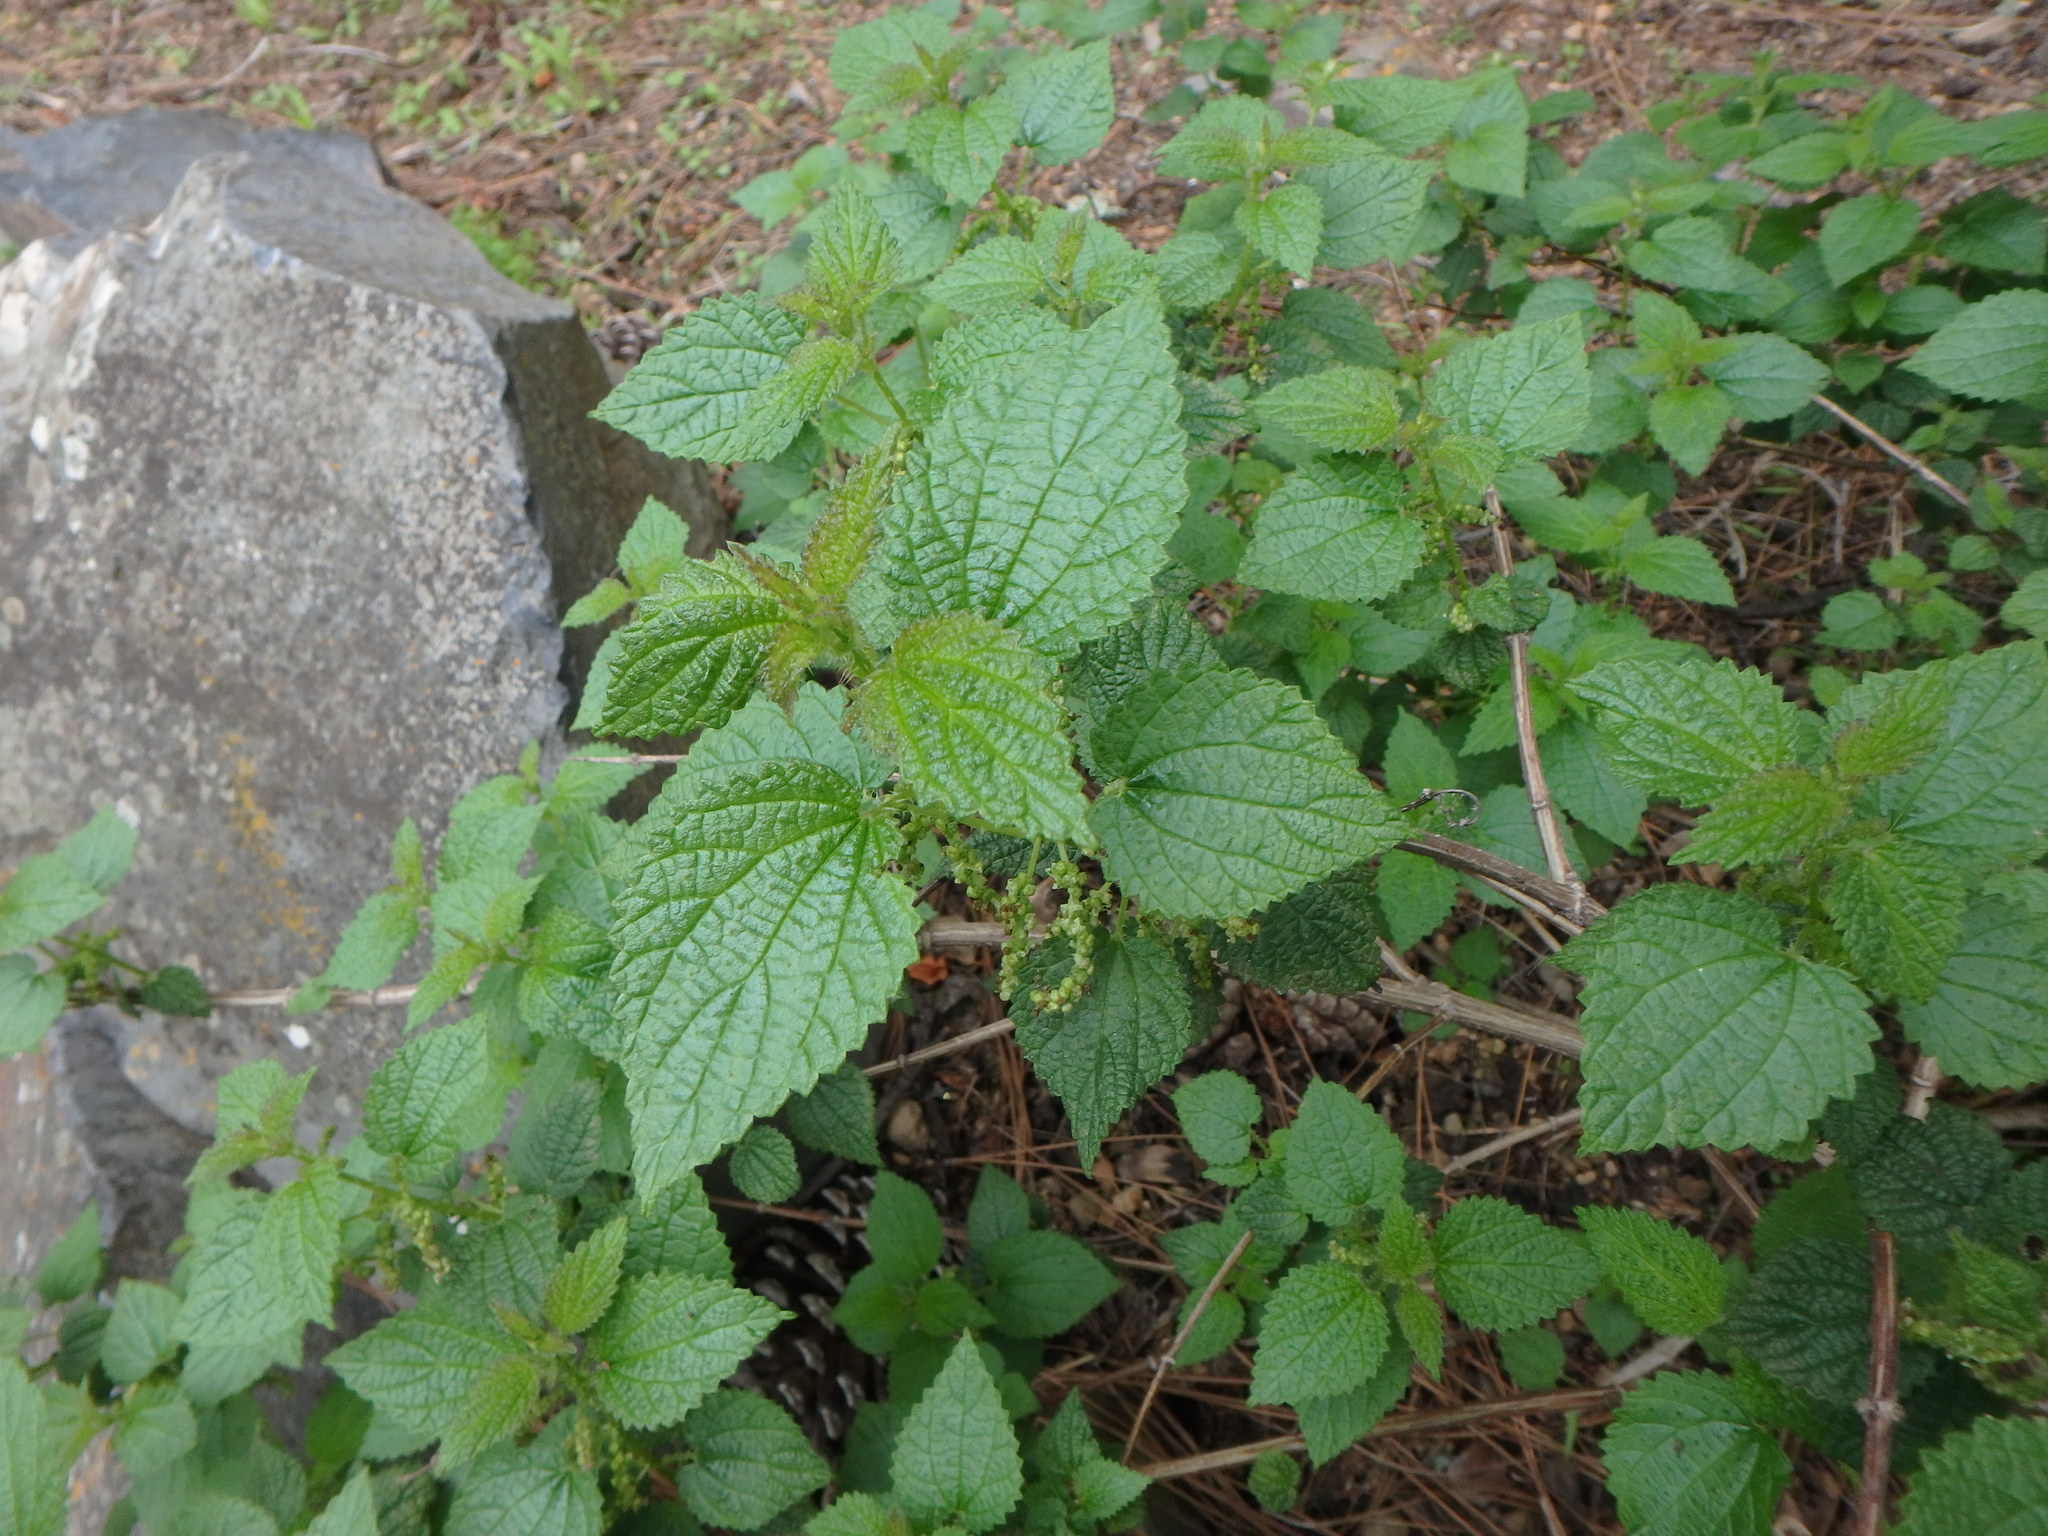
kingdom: Plantae
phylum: Tracheophyta
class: Magnoliopsida
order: Rosales
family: Urticaceae
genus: Urtica
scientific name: Urtica morifolia
